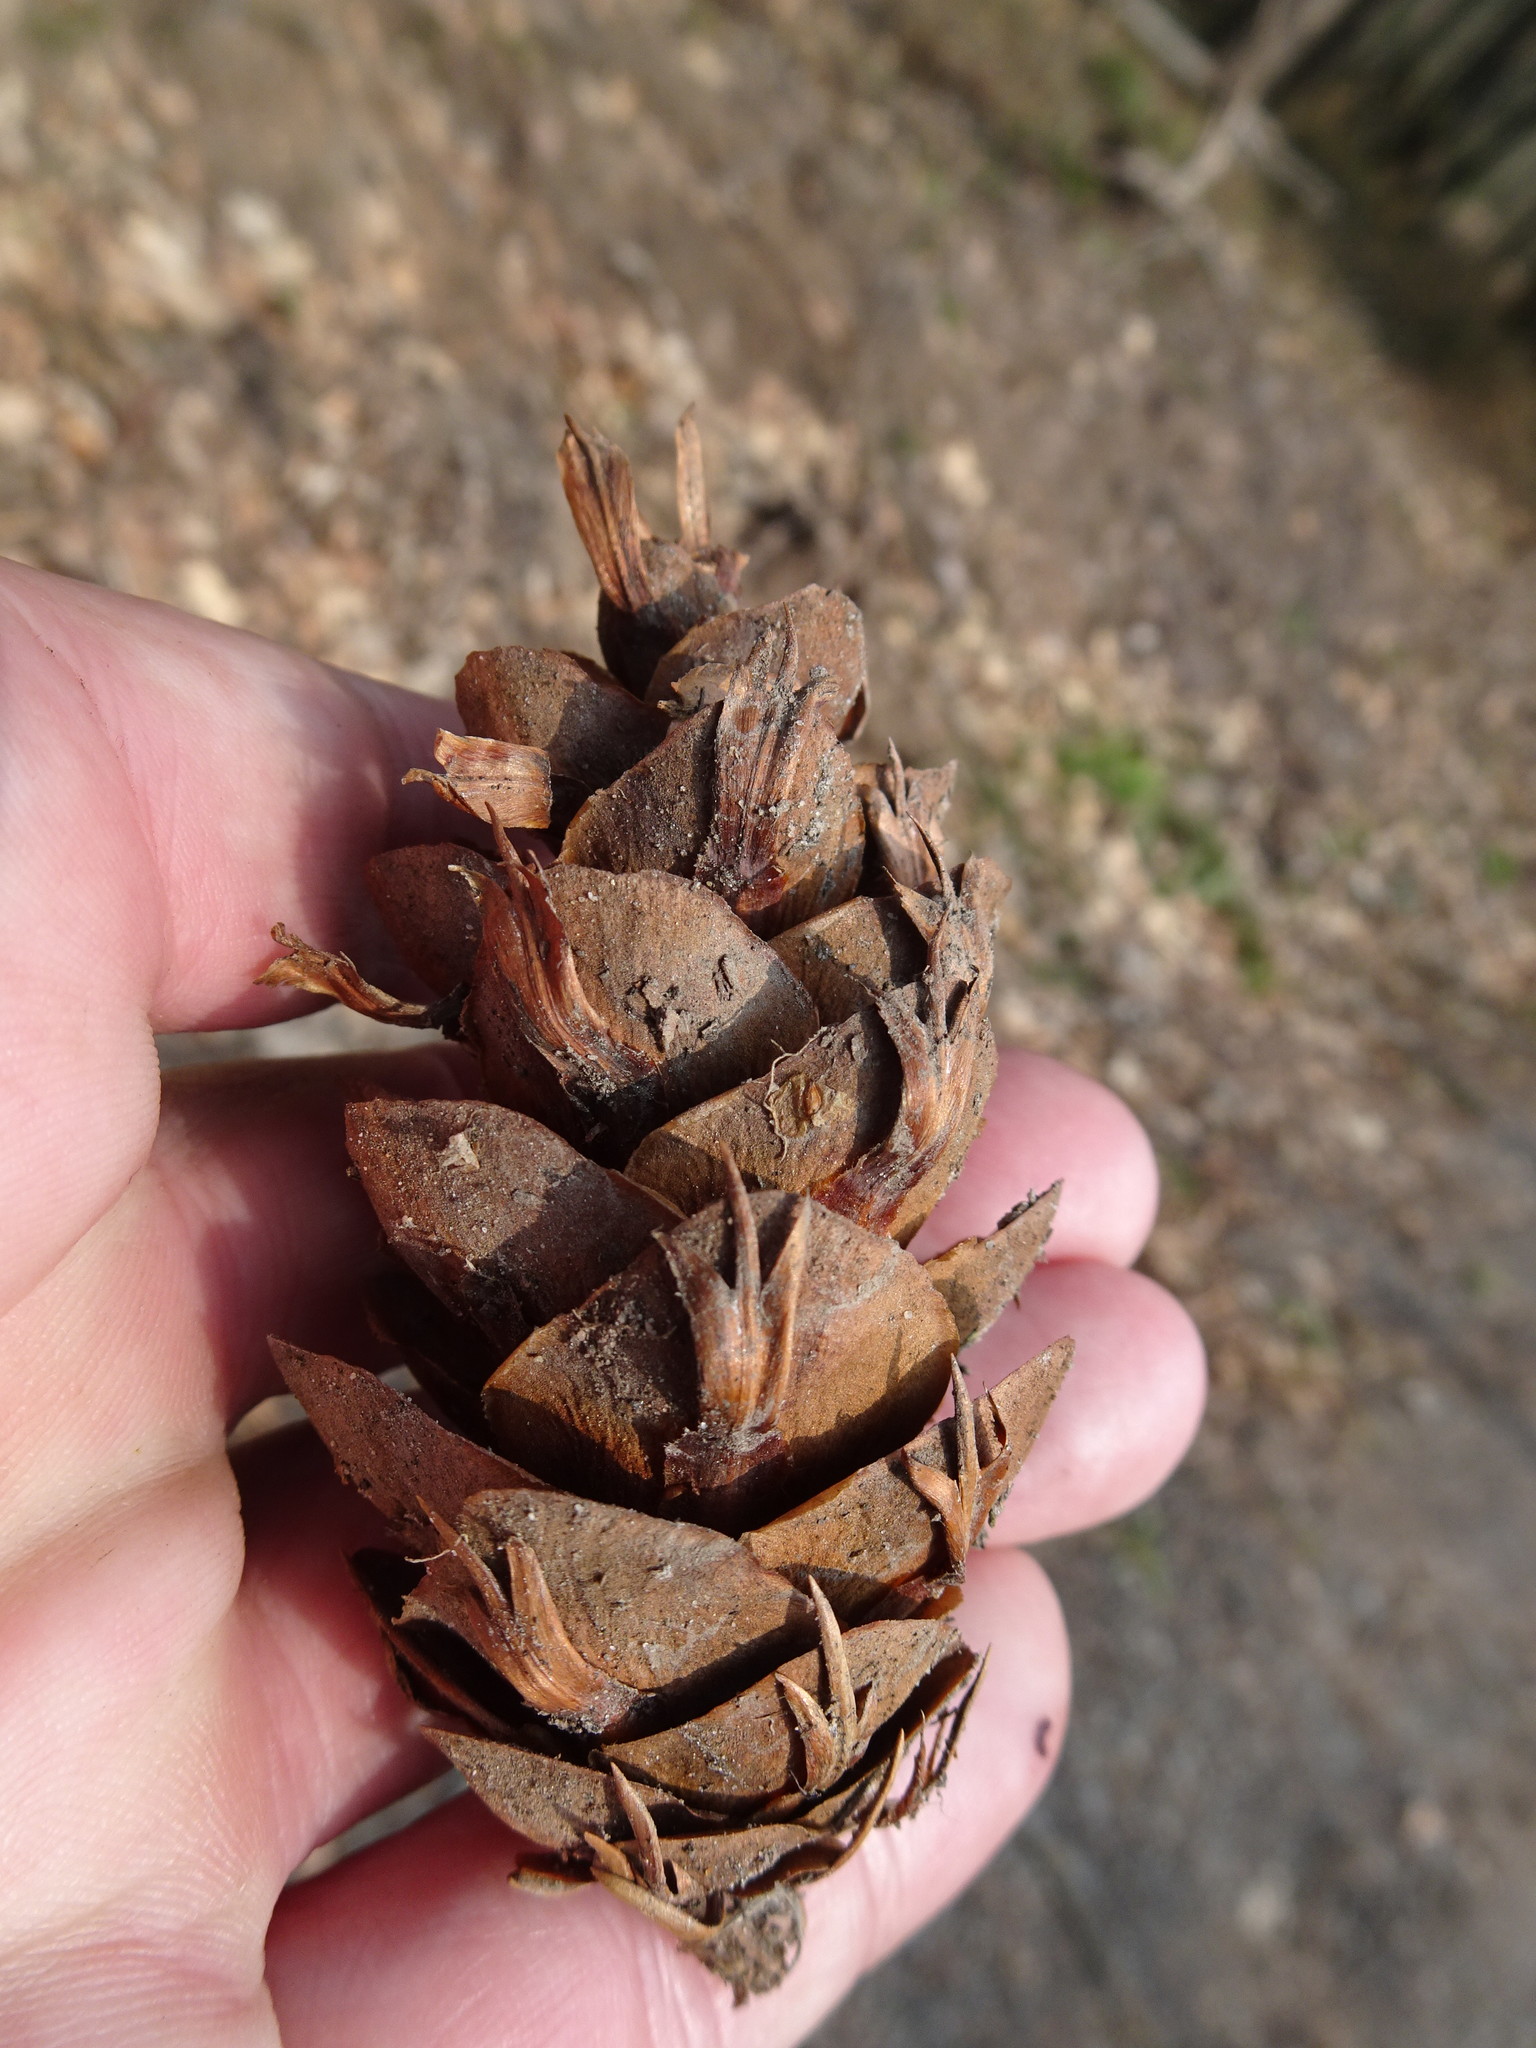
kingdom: Plantae
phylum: Tracheophyta
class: Pinopsida
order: Pinales
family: Pinaceae
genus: Pseudotsuga
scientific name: Pseudotsuga menziesii
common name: Douglas fir
